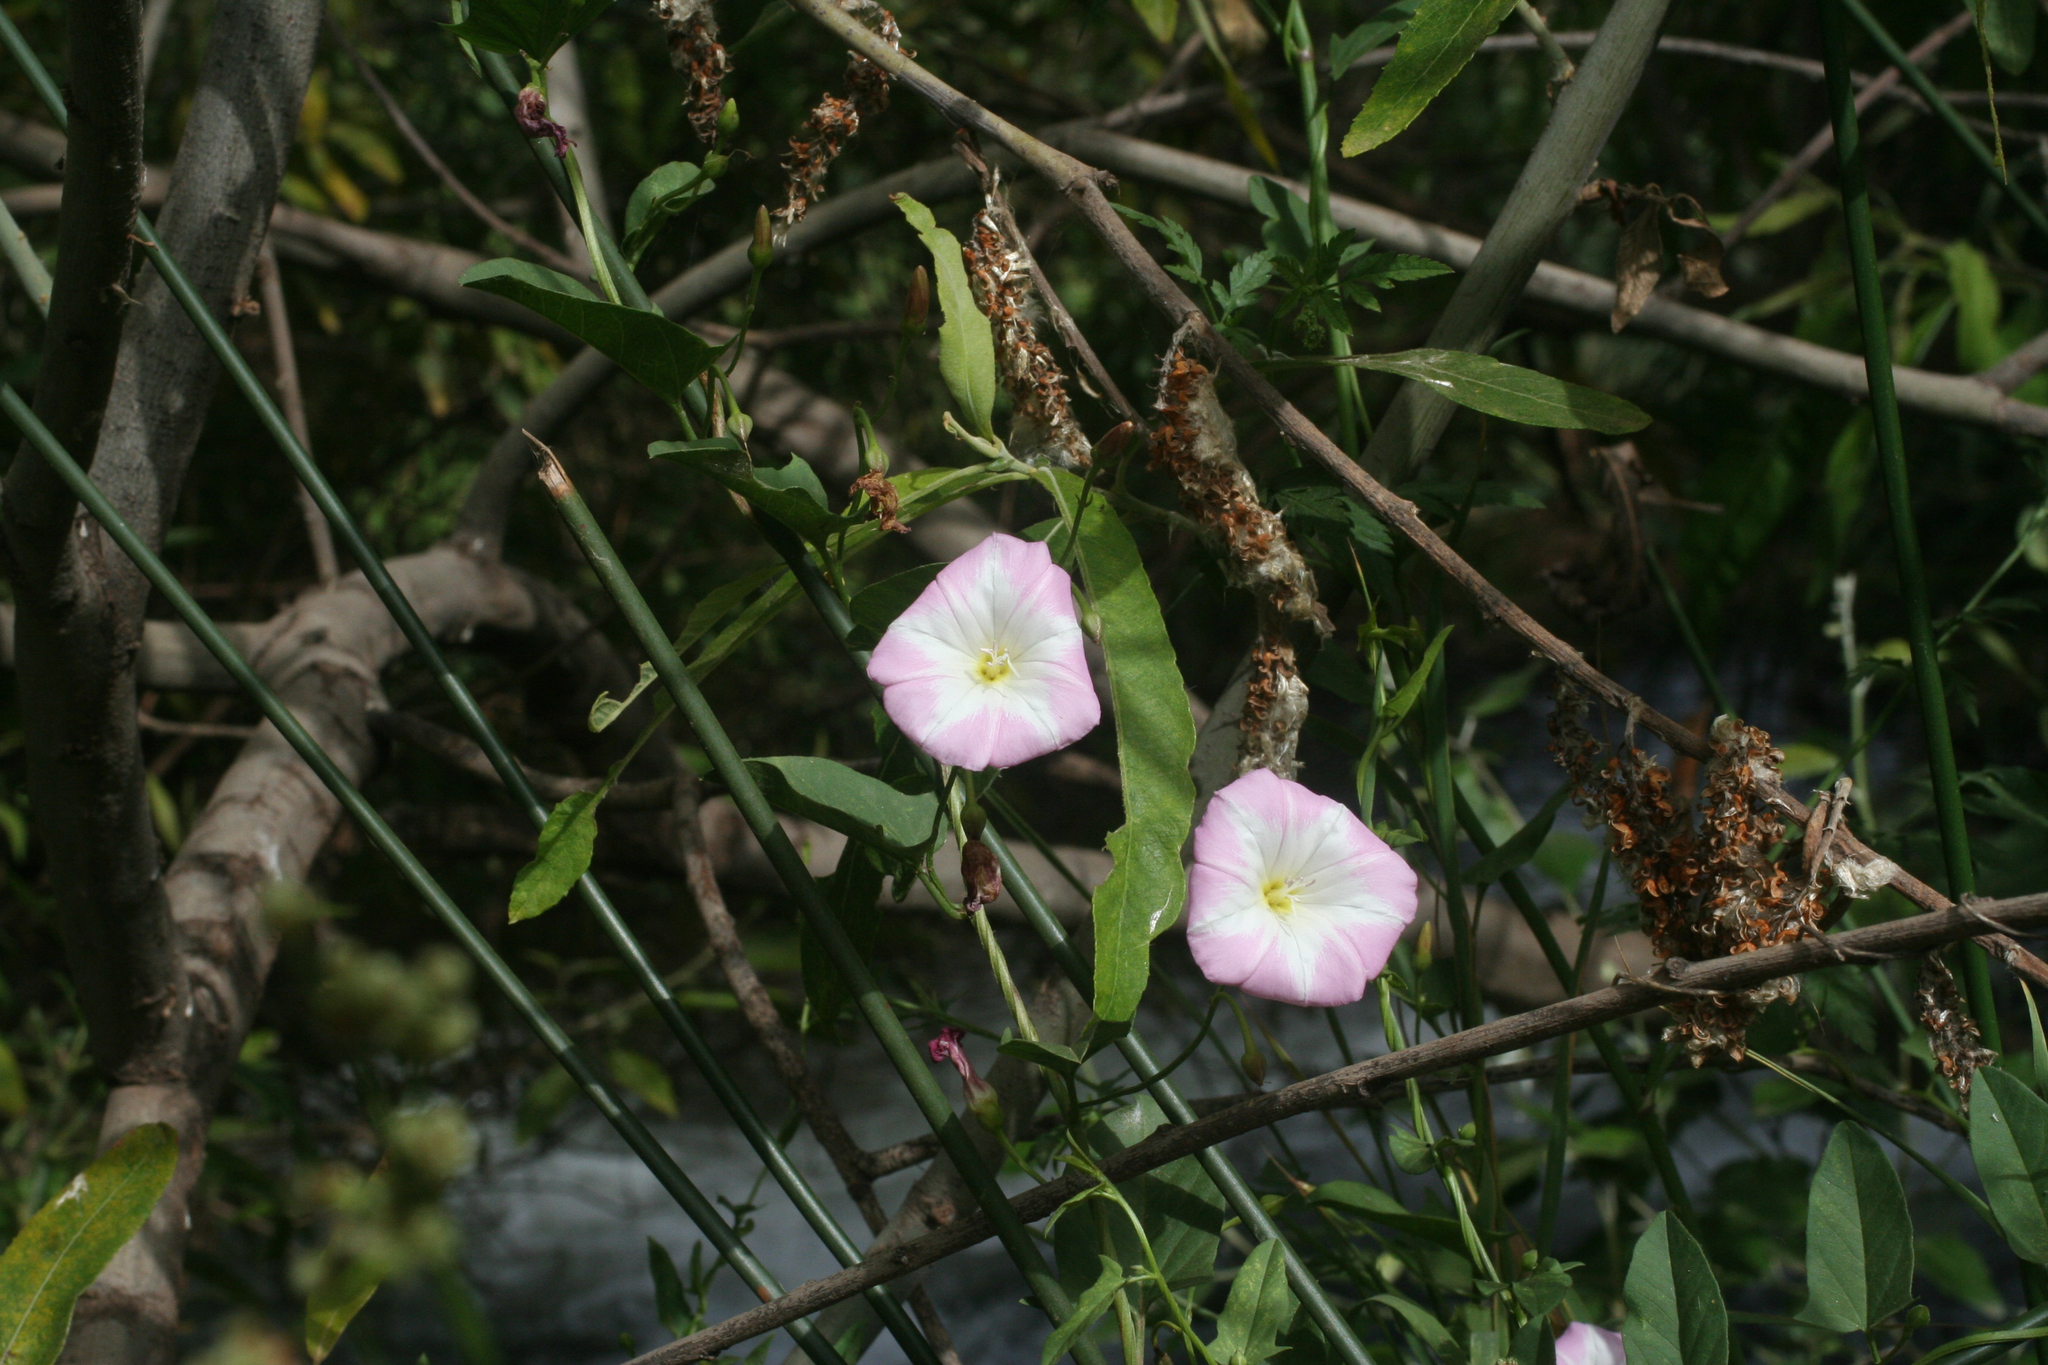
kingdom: Plantae
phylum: Tracheophyta
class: Magnoliopsida
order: Solanales
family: Convolvulaceae
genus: Convolvulus
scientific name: Convolvulus arvensis
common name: Field bindweed
